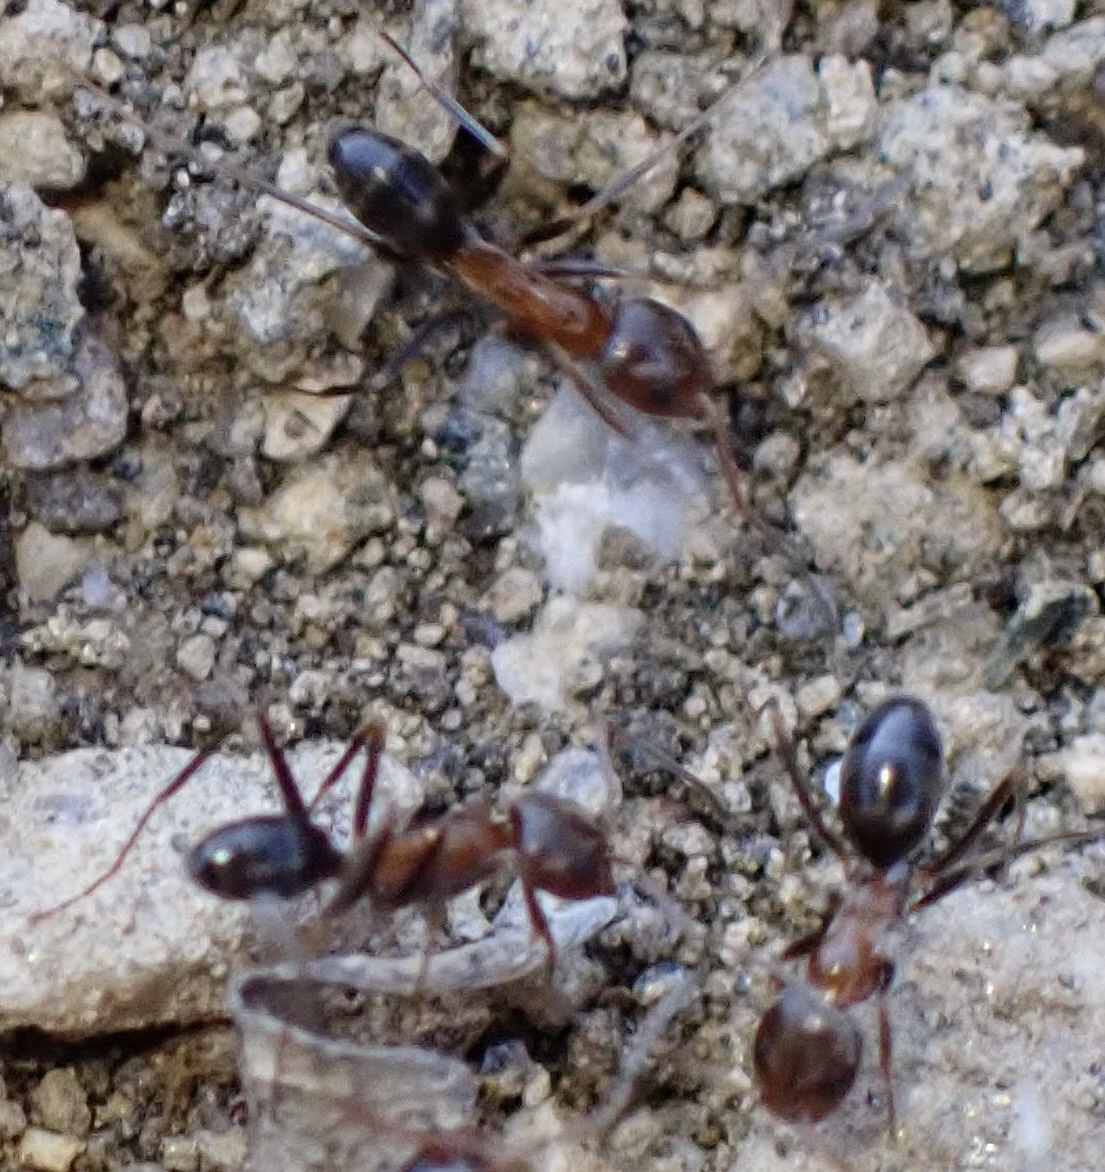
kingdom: Animalia
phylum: Arthropoda
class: Insecta
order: Hymenoptera
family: Formicidae
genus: Dorymyrmex
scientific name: Dorymyrmex bicolor
